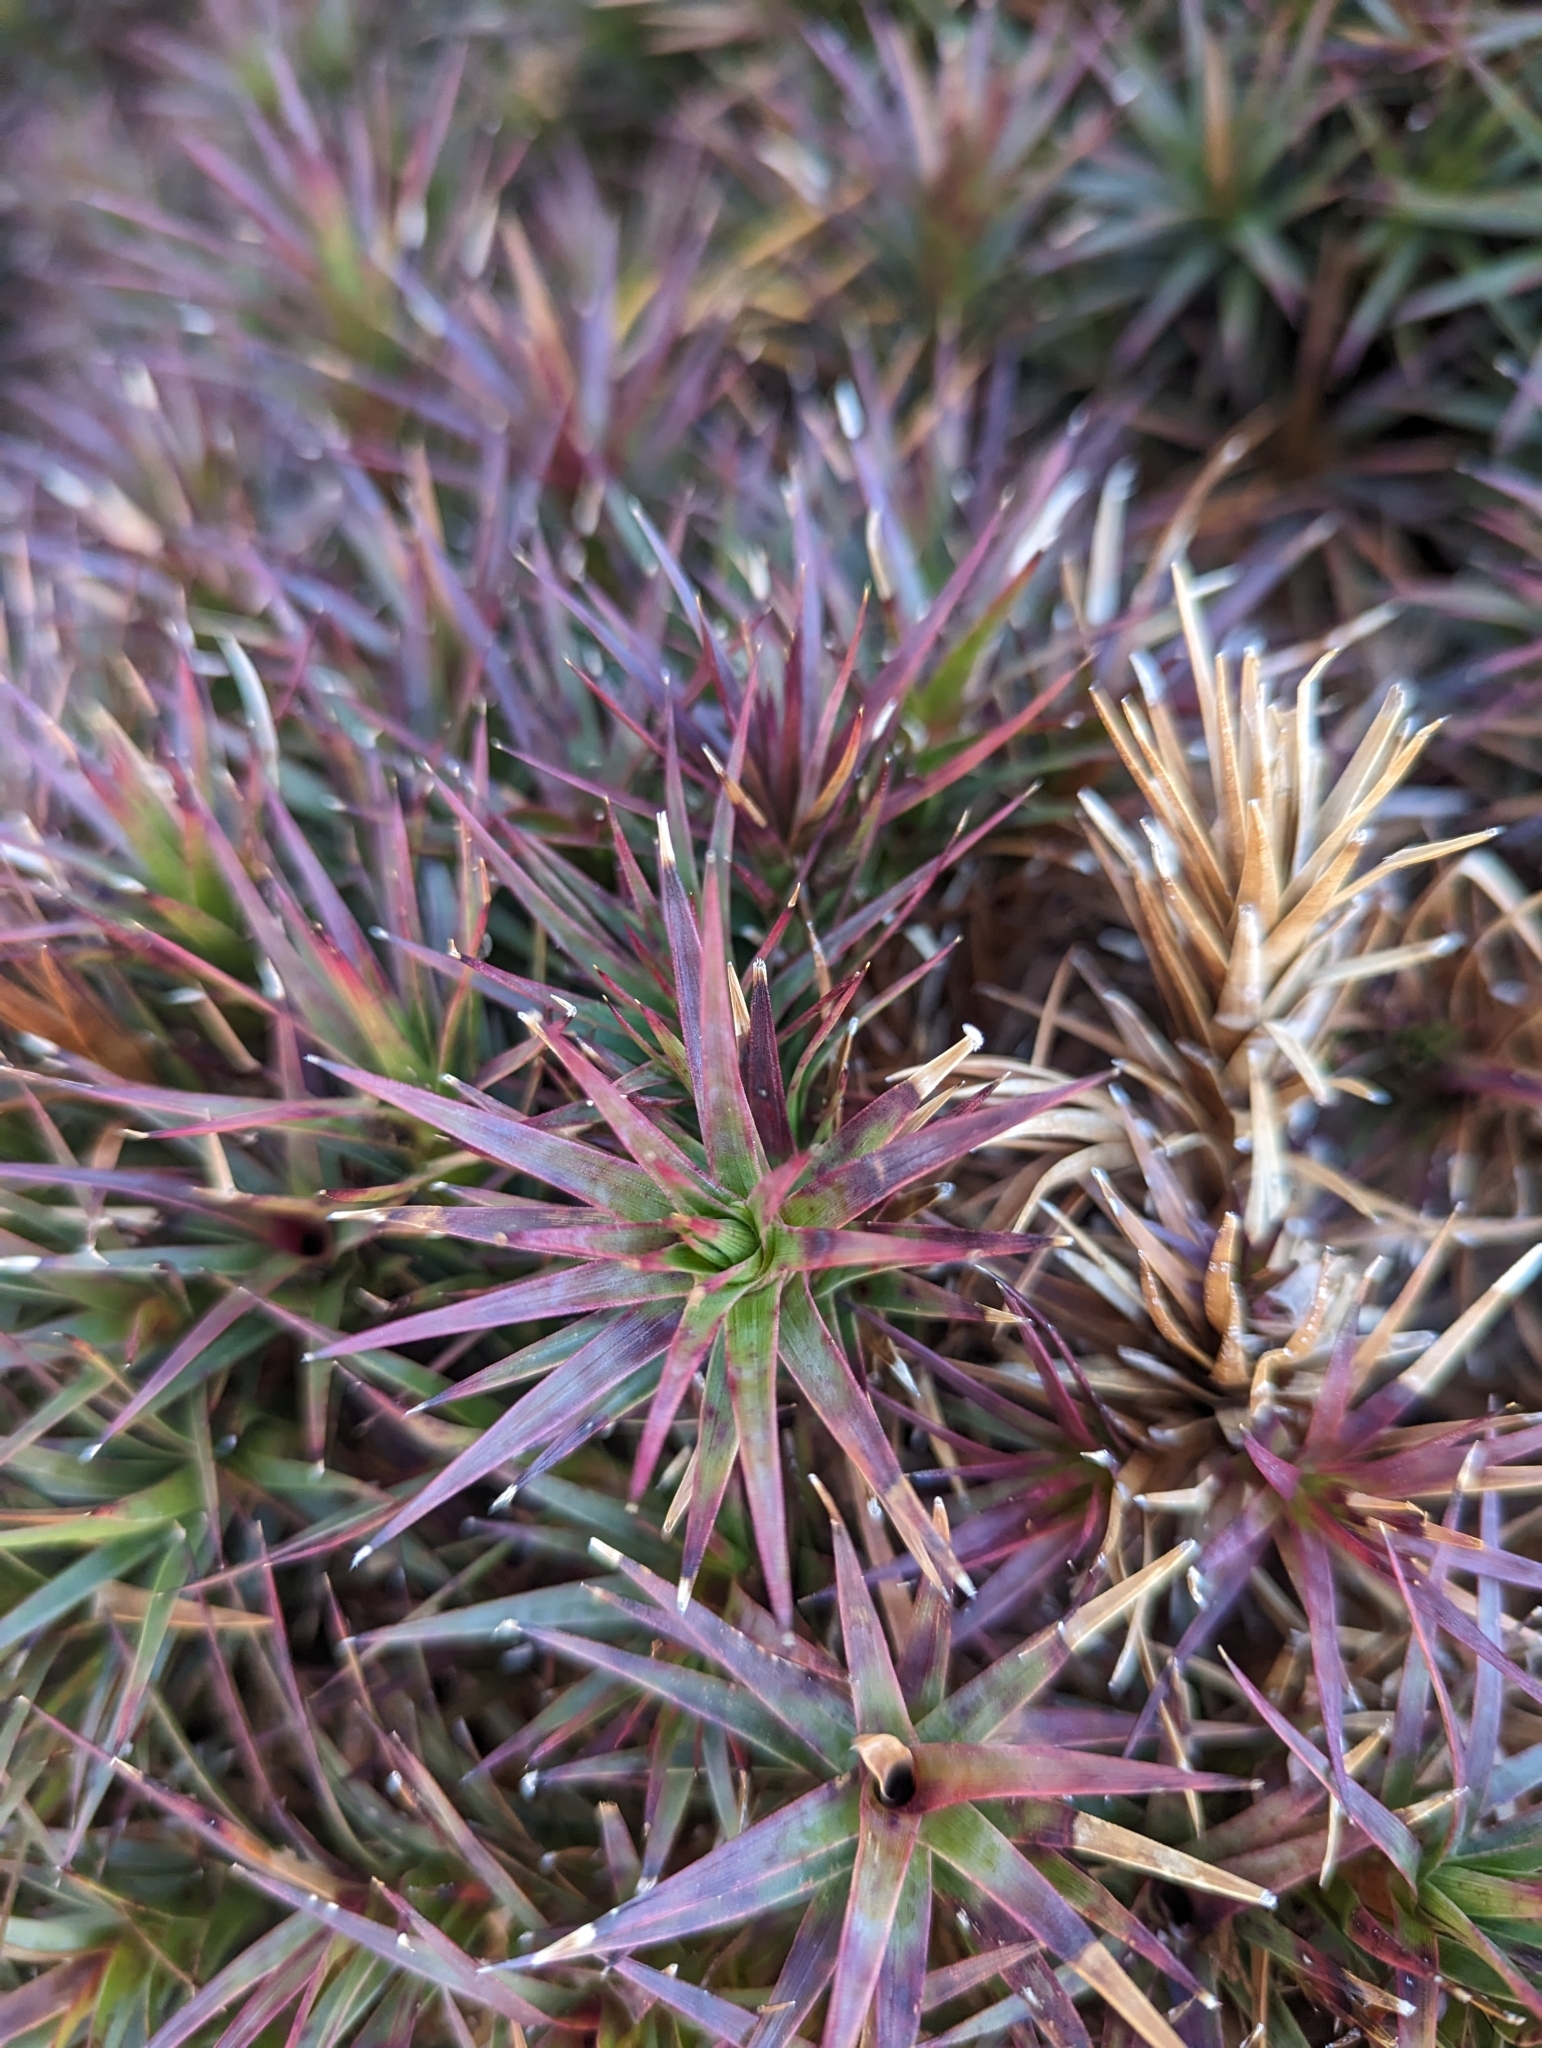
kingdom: Plantae
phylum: Tracheophyta
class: Magnoliopsida
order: Ericales
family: Ericaceae
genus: Dracophyllum
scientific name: Dracophyllum persistentifolium
